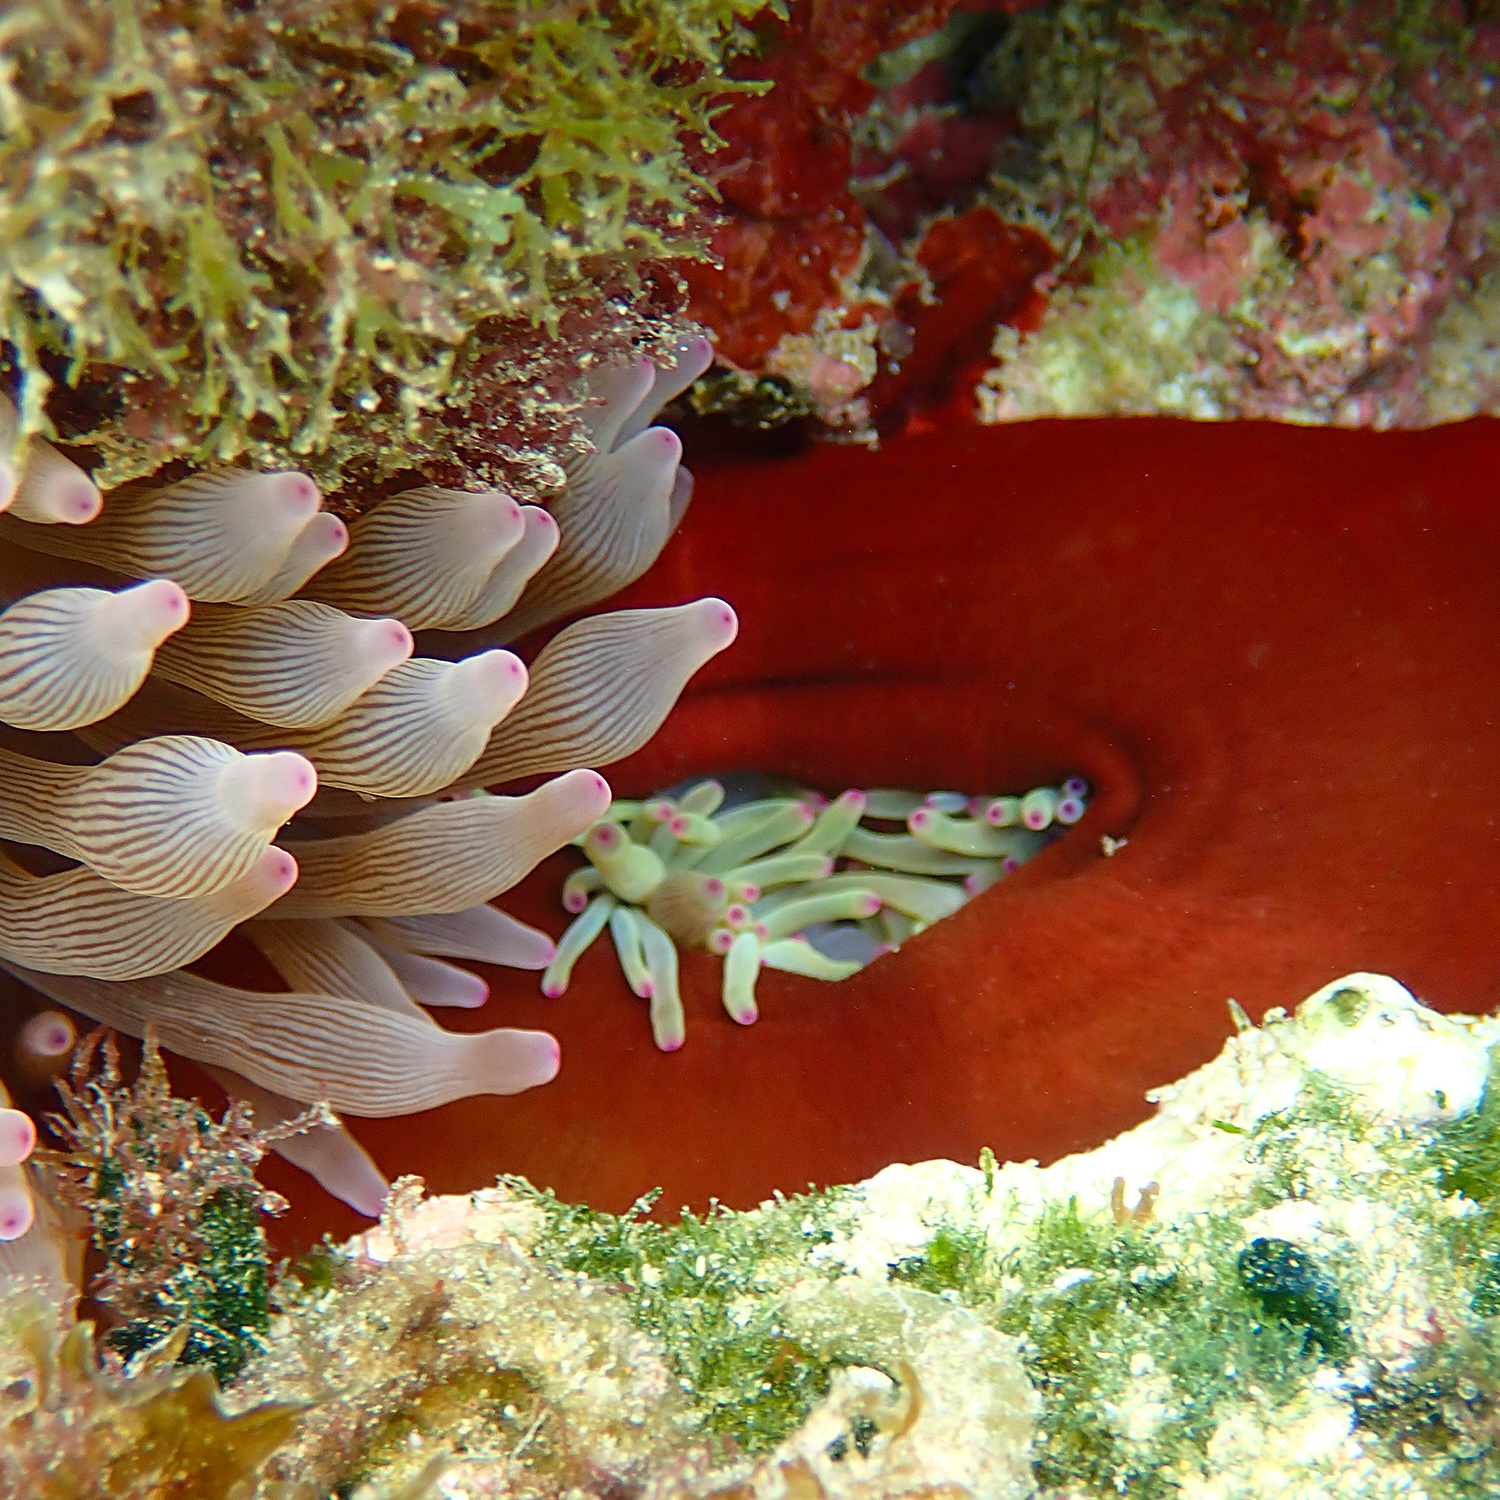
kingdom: Animalia
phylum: Cnidaria
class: Anthozoa
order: Actiniaria
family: Actiniidae
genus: Entacmaea
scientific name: Entacmaea quadricolor
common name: Bulb tentacle sea anemone
